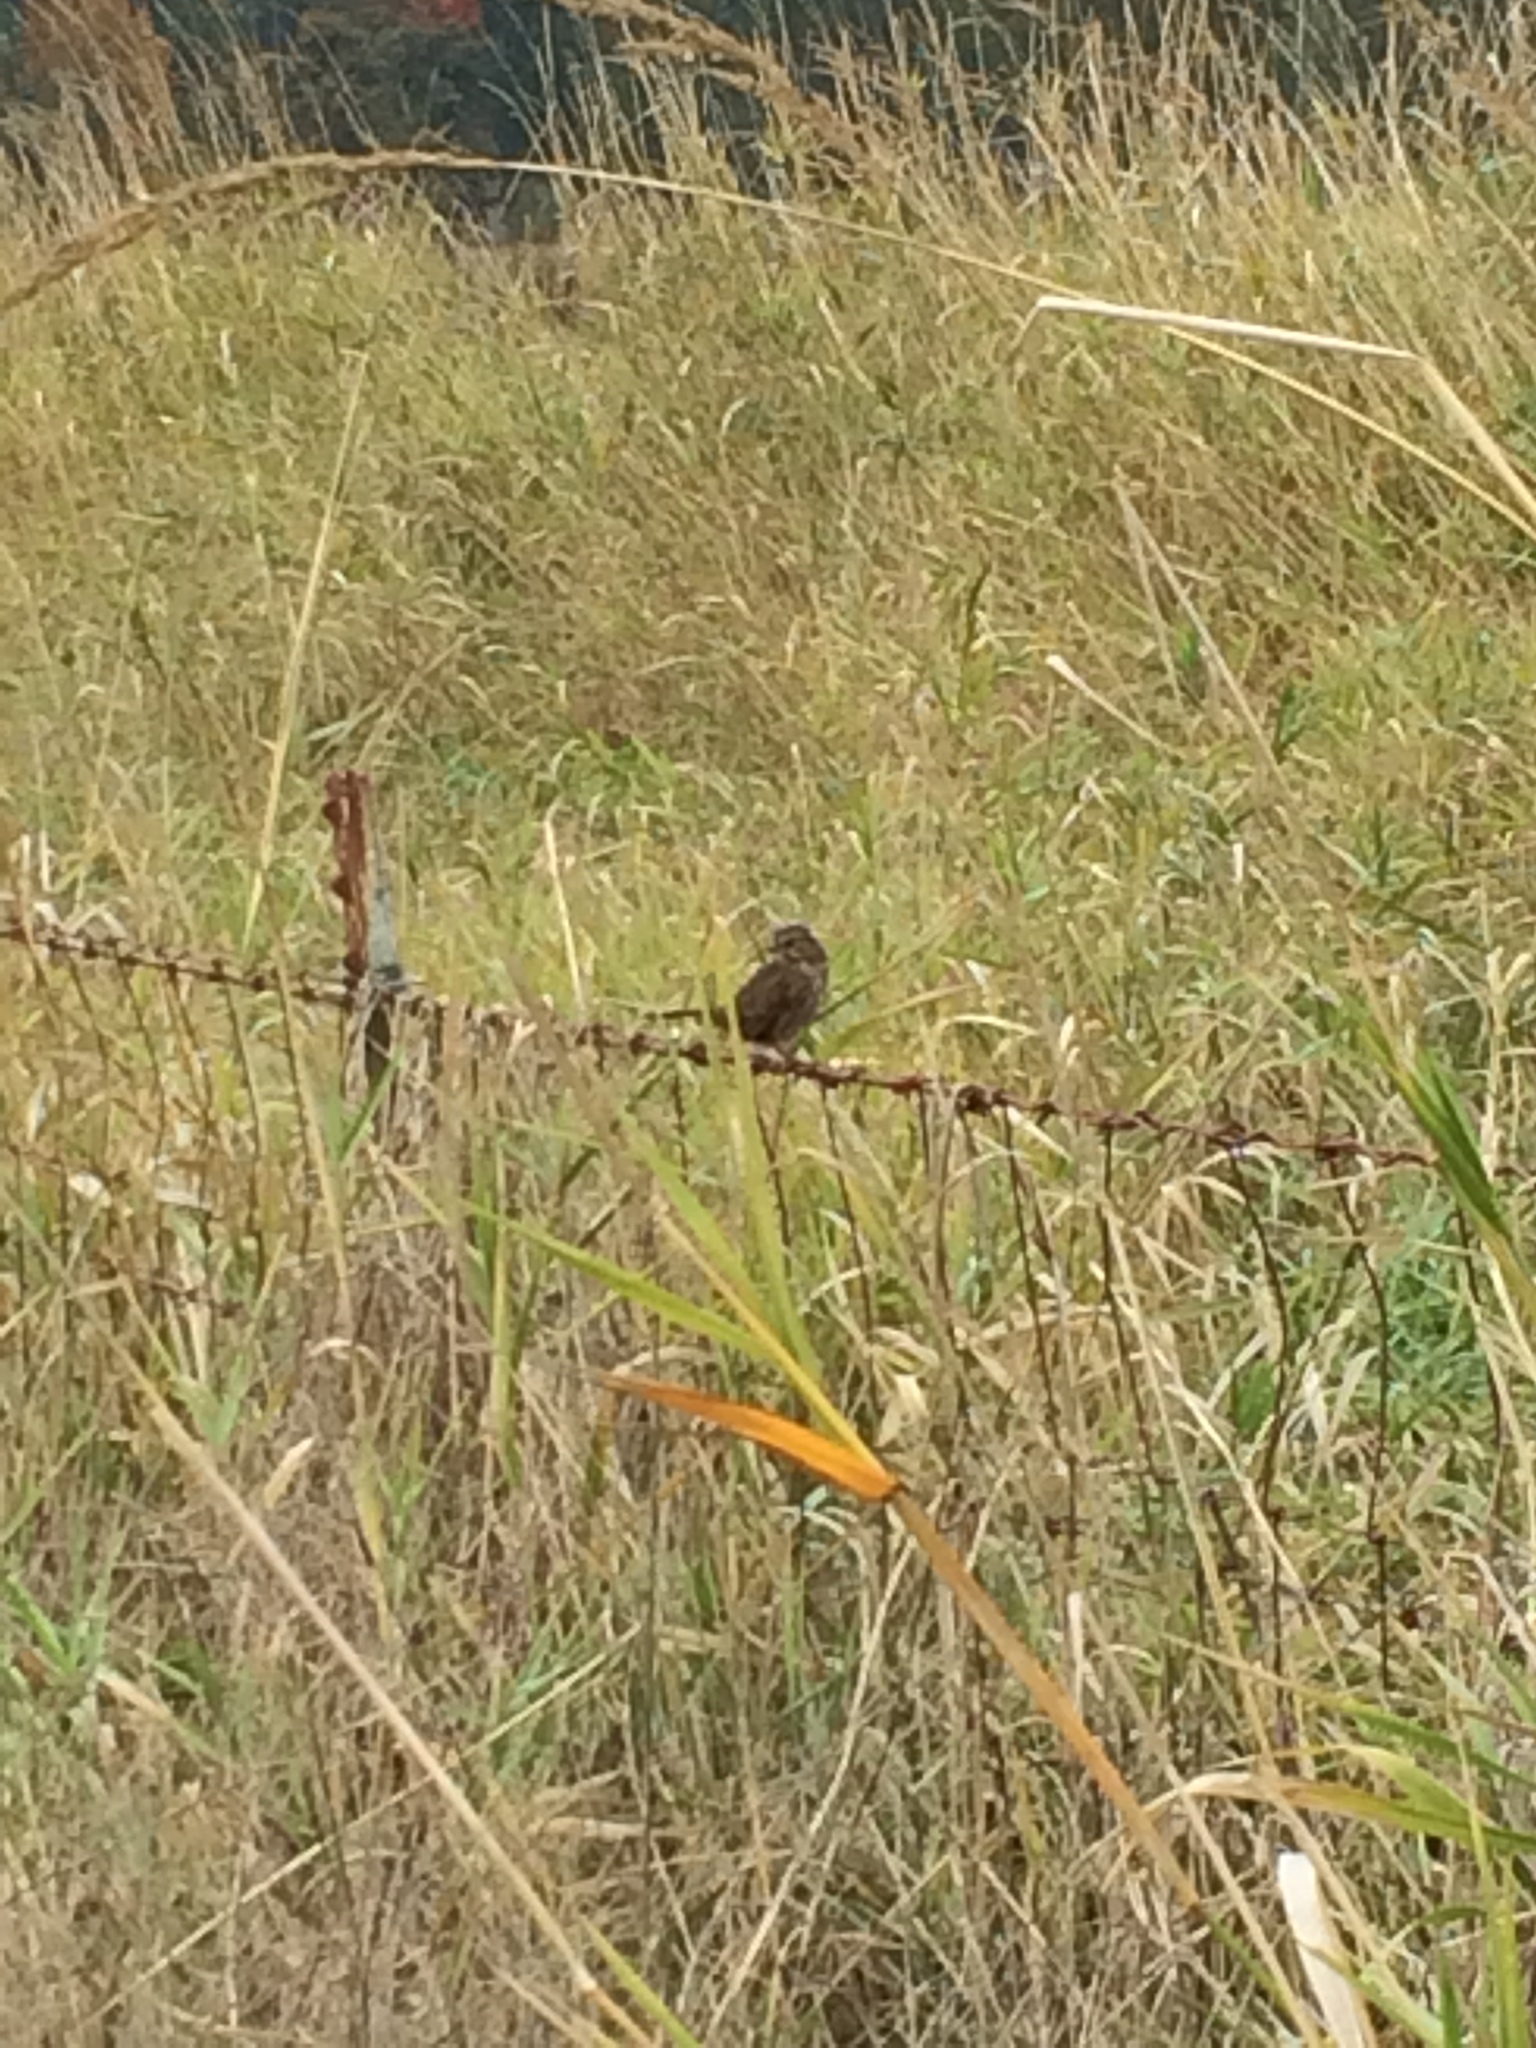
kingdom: Animalia
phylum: Chordata
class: Aves
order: Passeriformes
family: Passerellidae
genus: Melospiza
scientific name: Melospiza melodia
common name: Song sparrow
